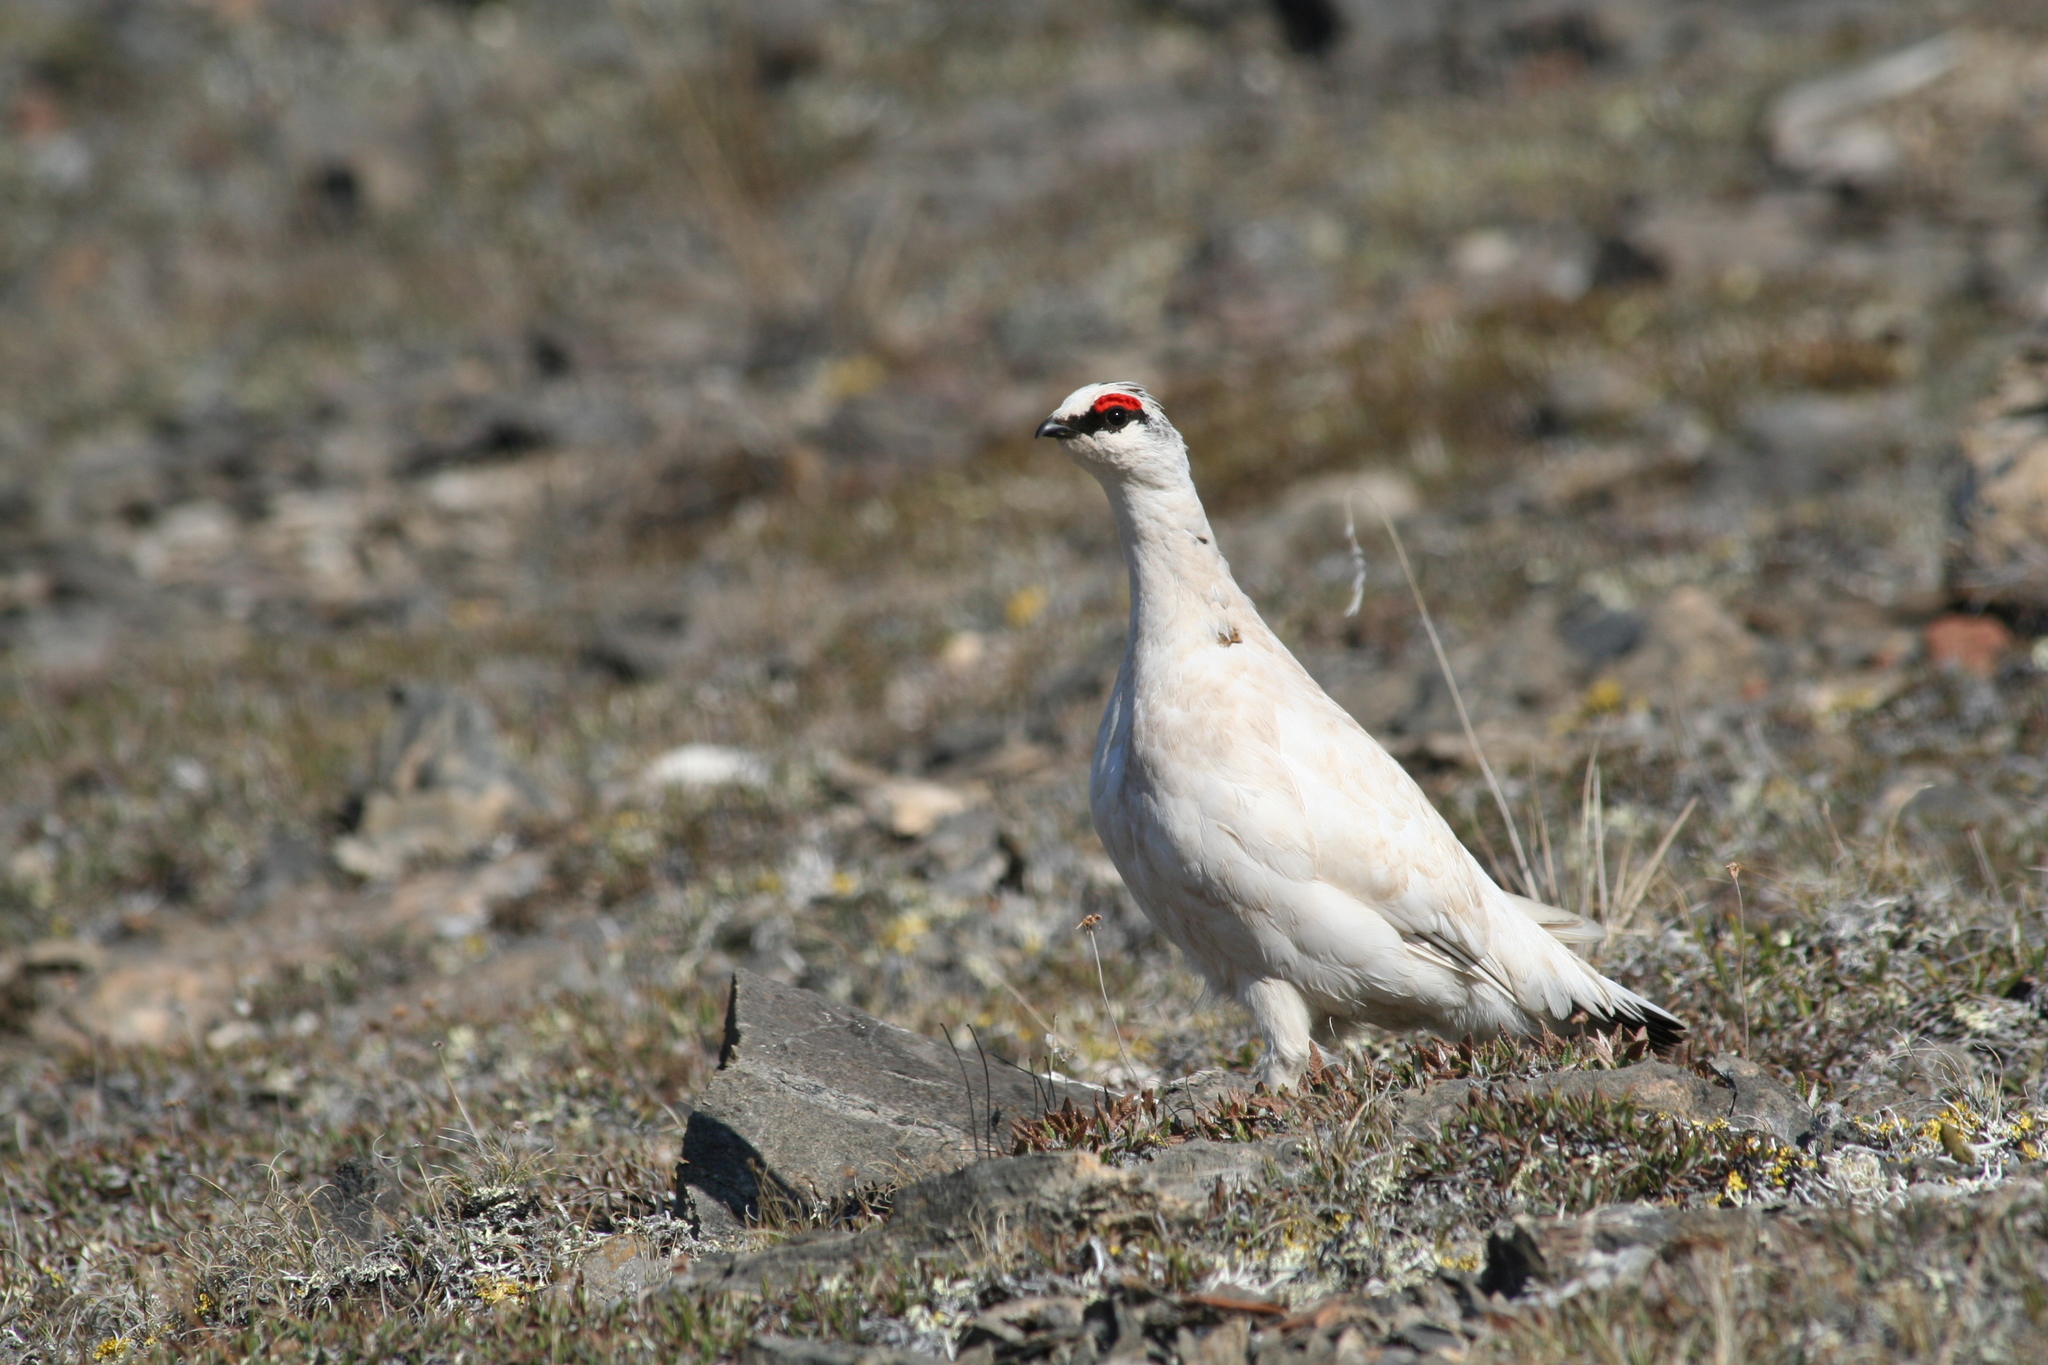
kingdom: Animalia
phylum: Chordata
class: Aves
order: Galliformes
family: Phasianidae
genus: Lagopus
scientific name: Lagopus muta
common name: Rock ptarmigan
